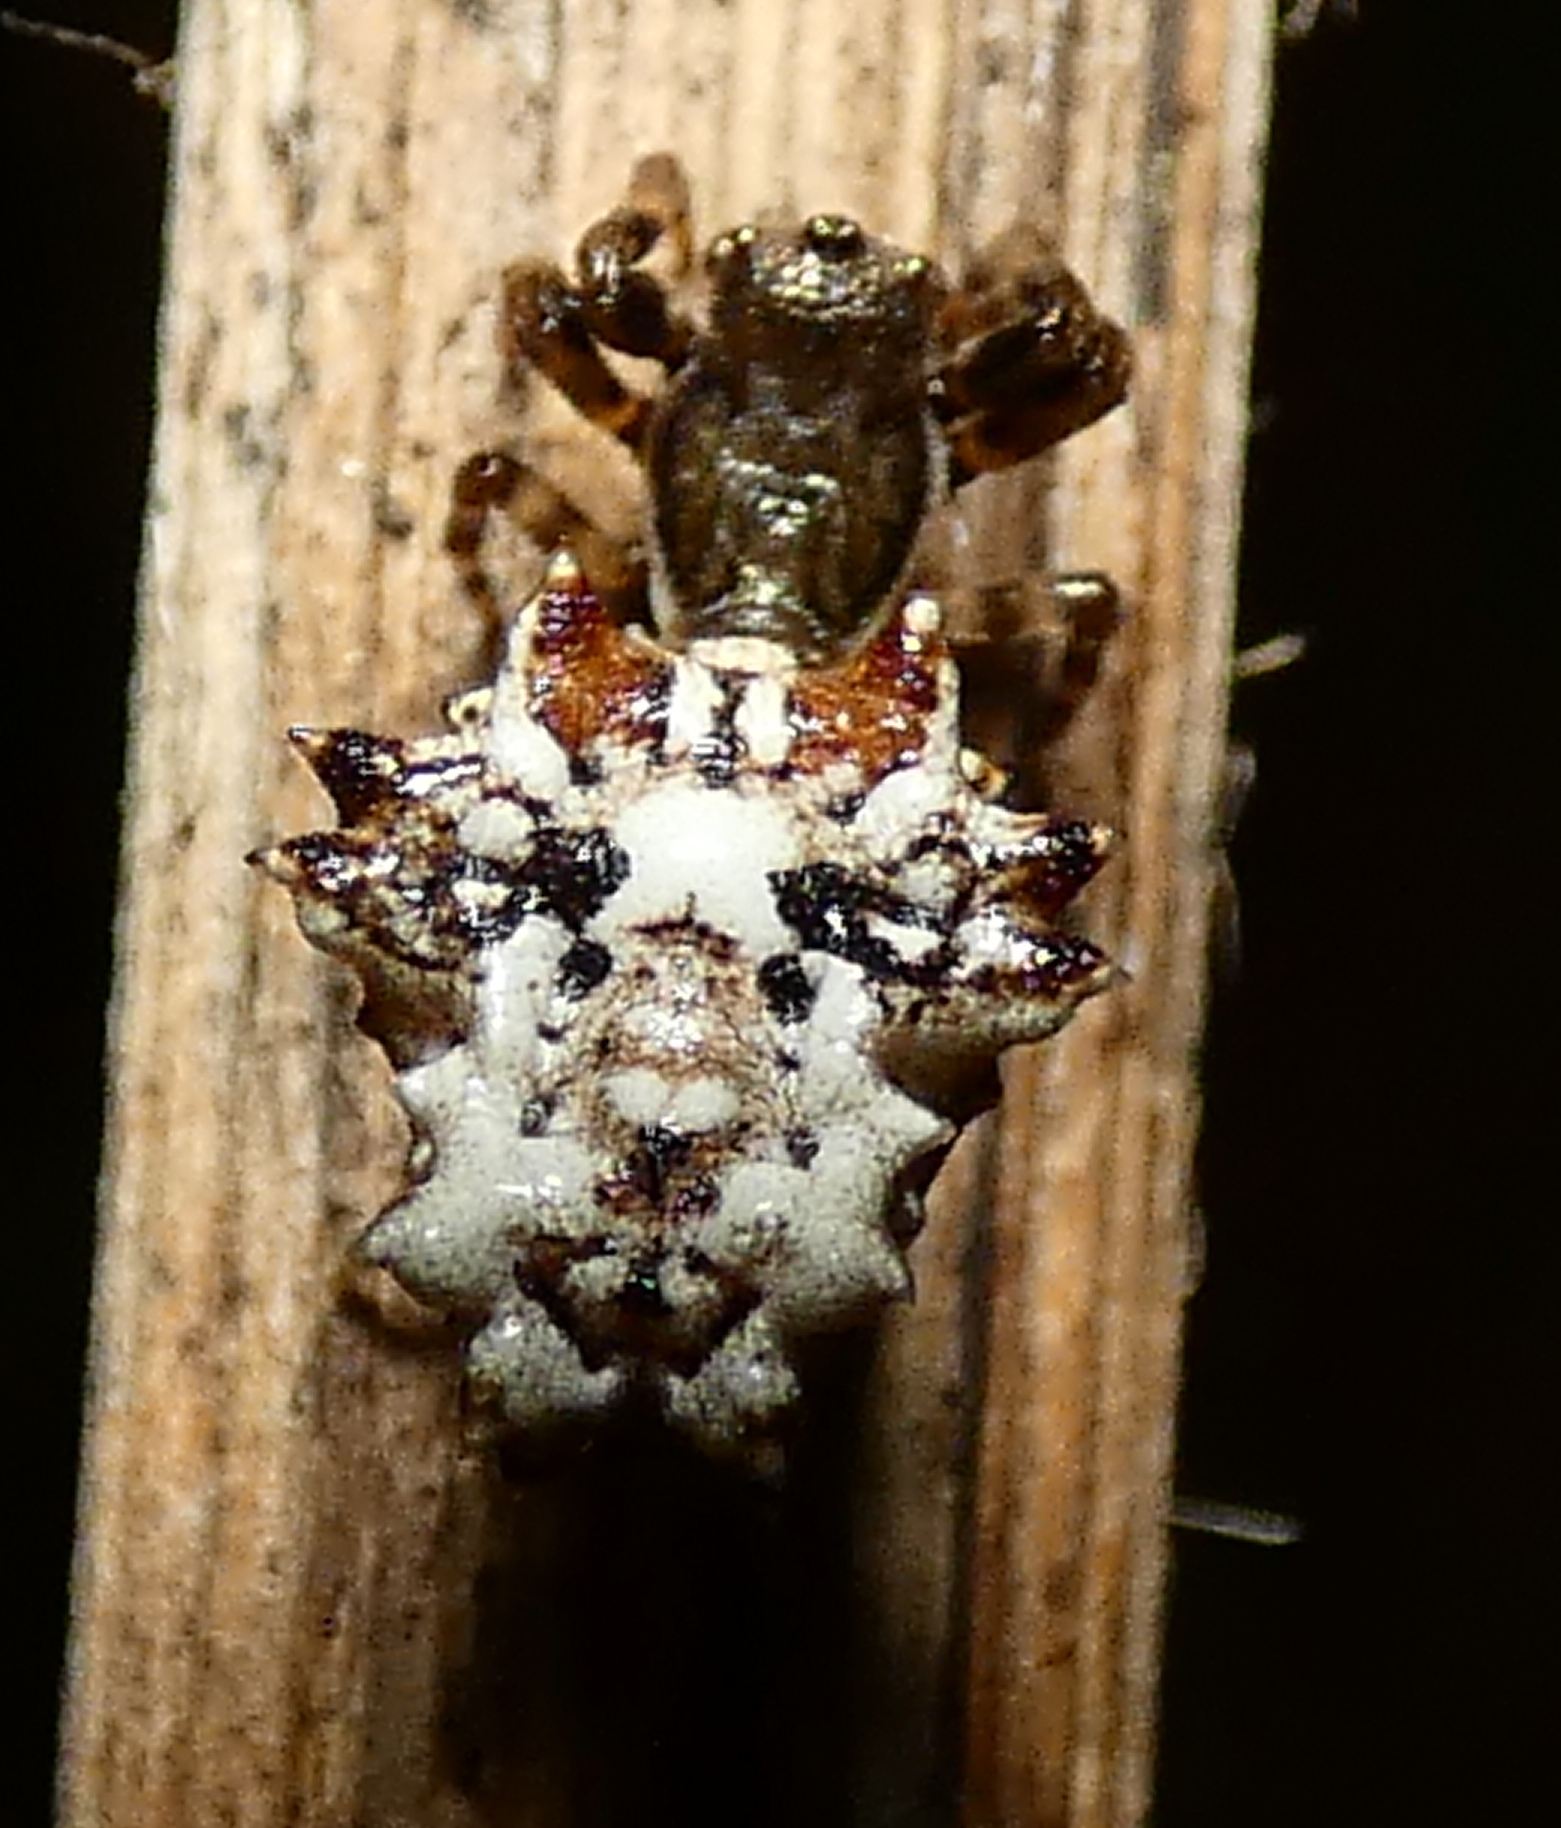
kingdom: Animalia
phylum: Arthropoda
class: Arachnida
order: Araneae
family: Araneidae
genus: Micrathena
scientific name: Micrathena horrida
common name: Orb weavers
